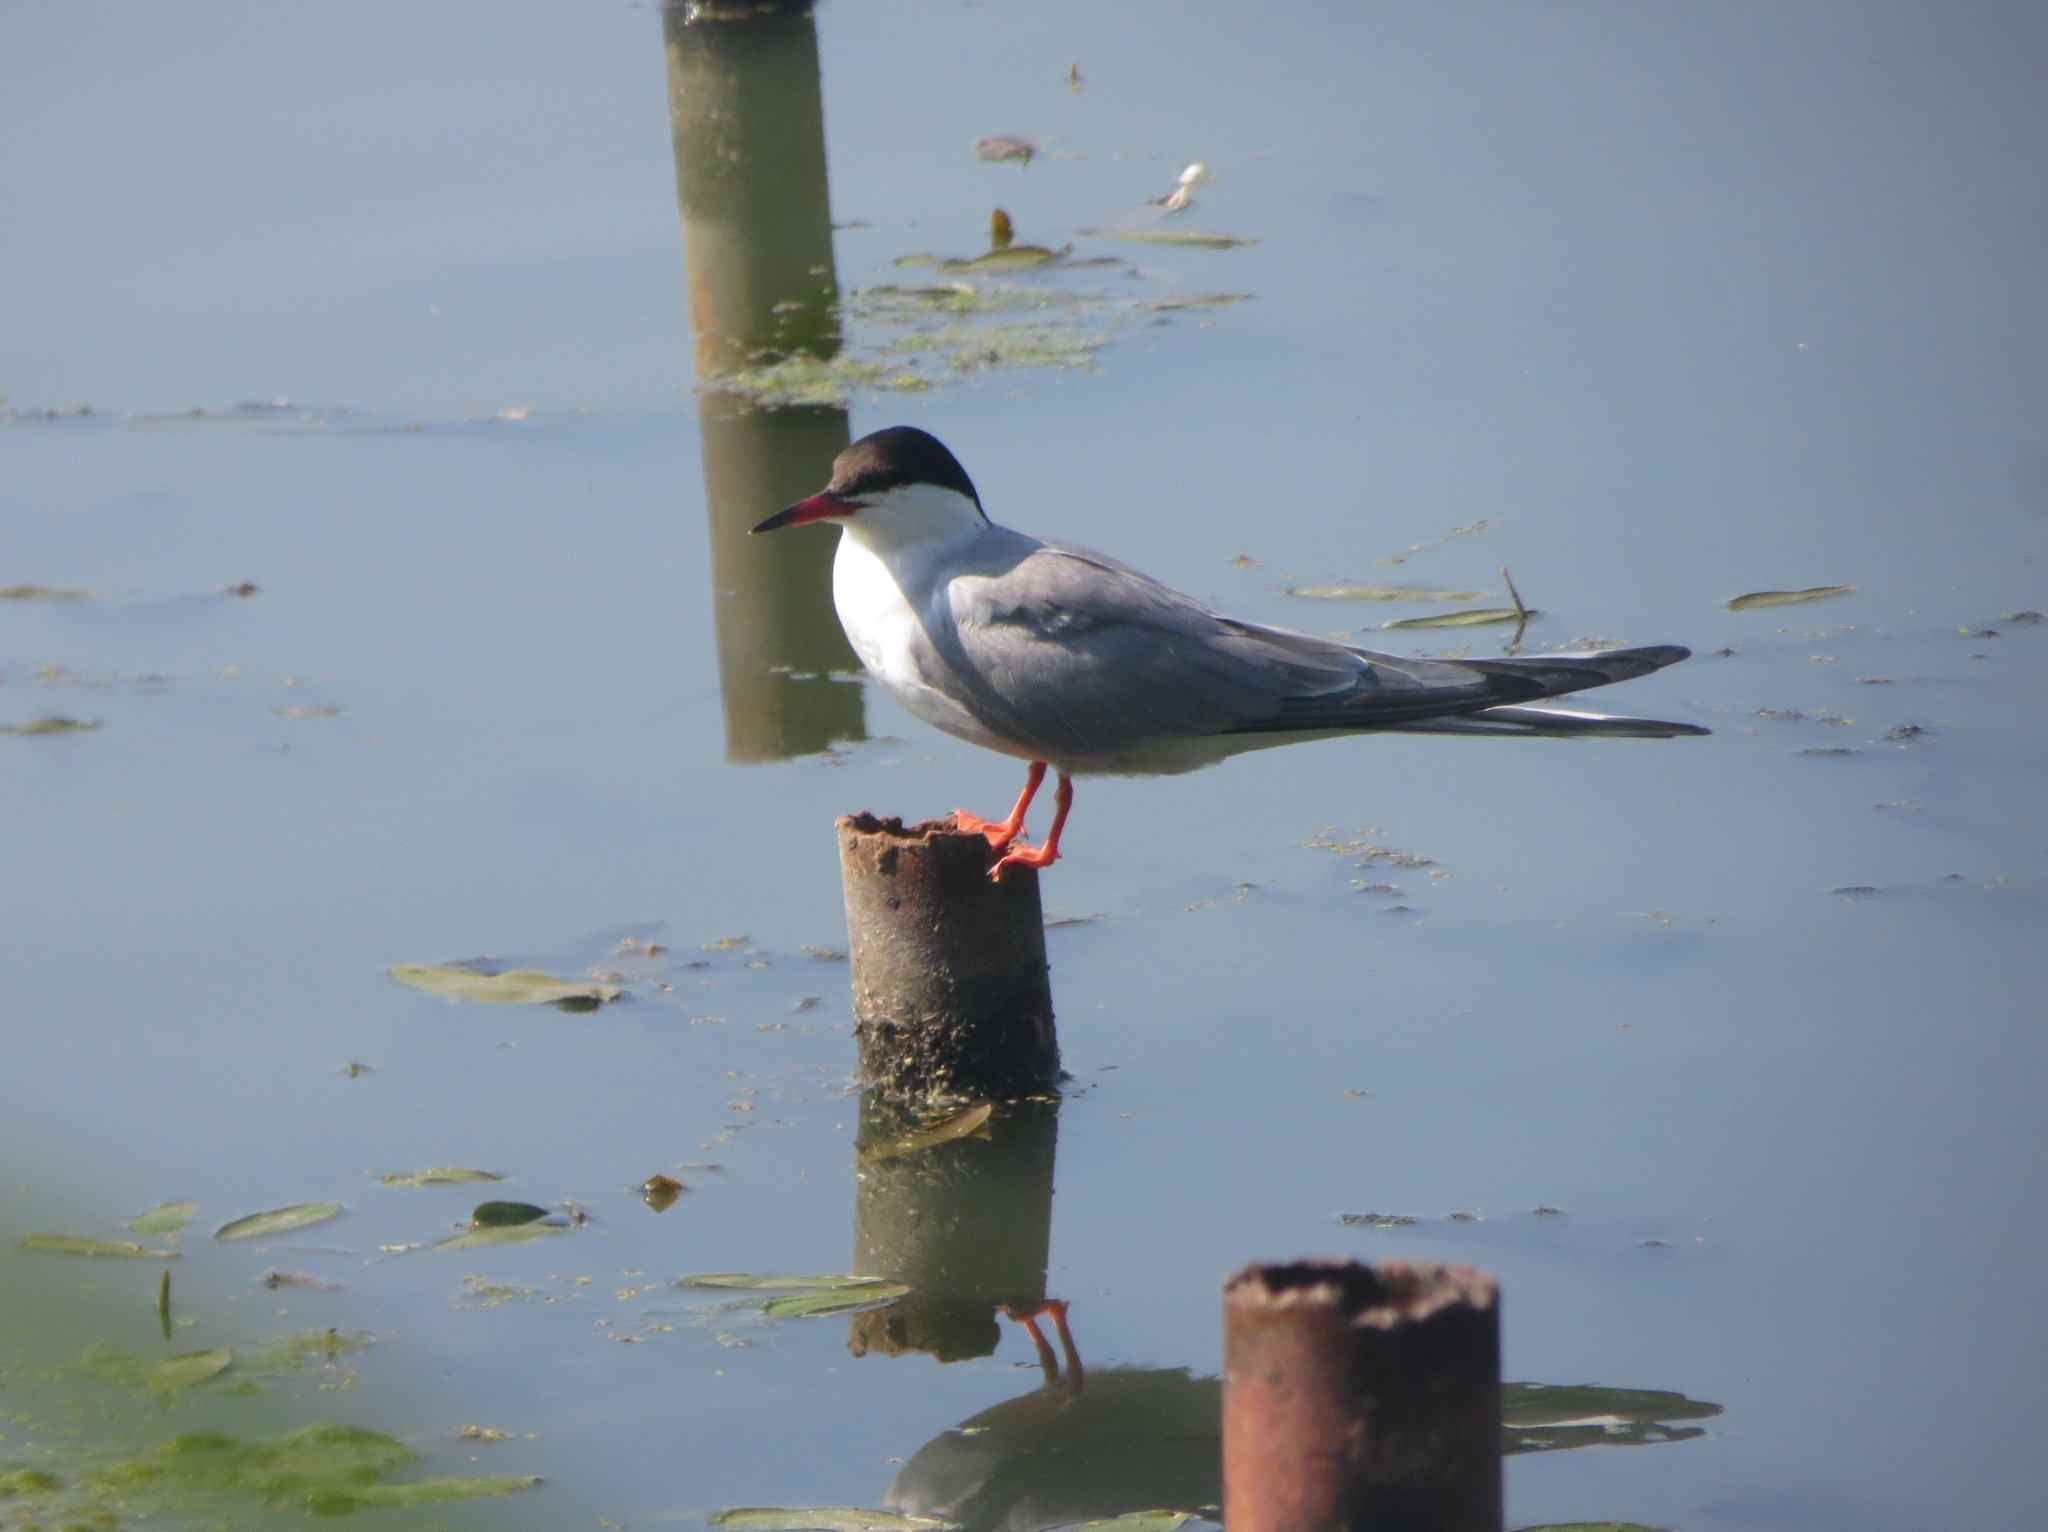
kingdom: Animalia
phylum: Chordata
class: Aves
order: Charadriiformes
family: Laridae
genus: Sterna
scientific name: Sterna hirundo
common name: Common tern
